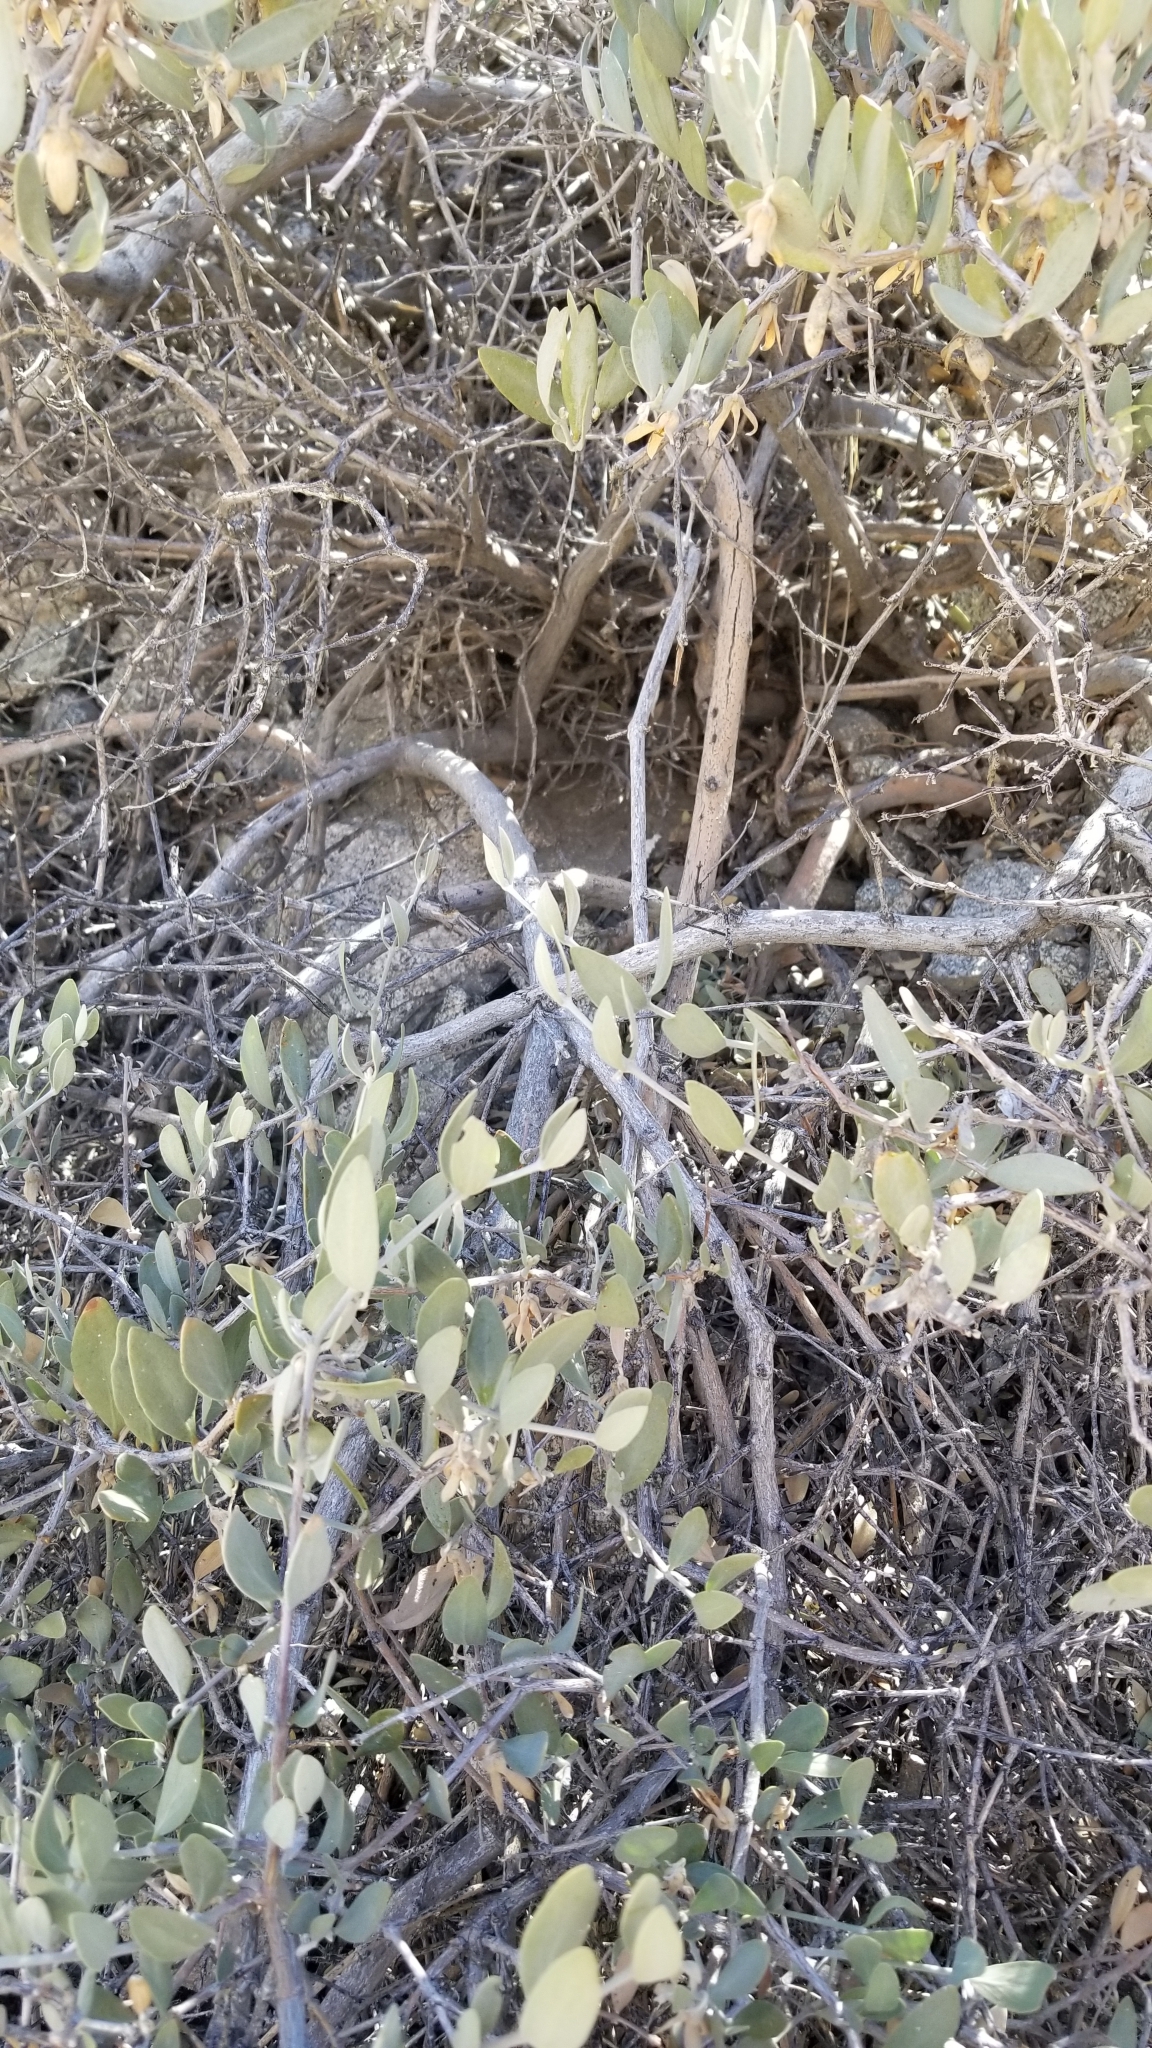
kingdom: Plantae
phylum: Tracheophyta
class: Magnoliopsida
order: Caryophyllales
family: Simmondsiaceae
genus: Simmondsia
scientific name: Simmondsia chinensis
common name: Jojoba
